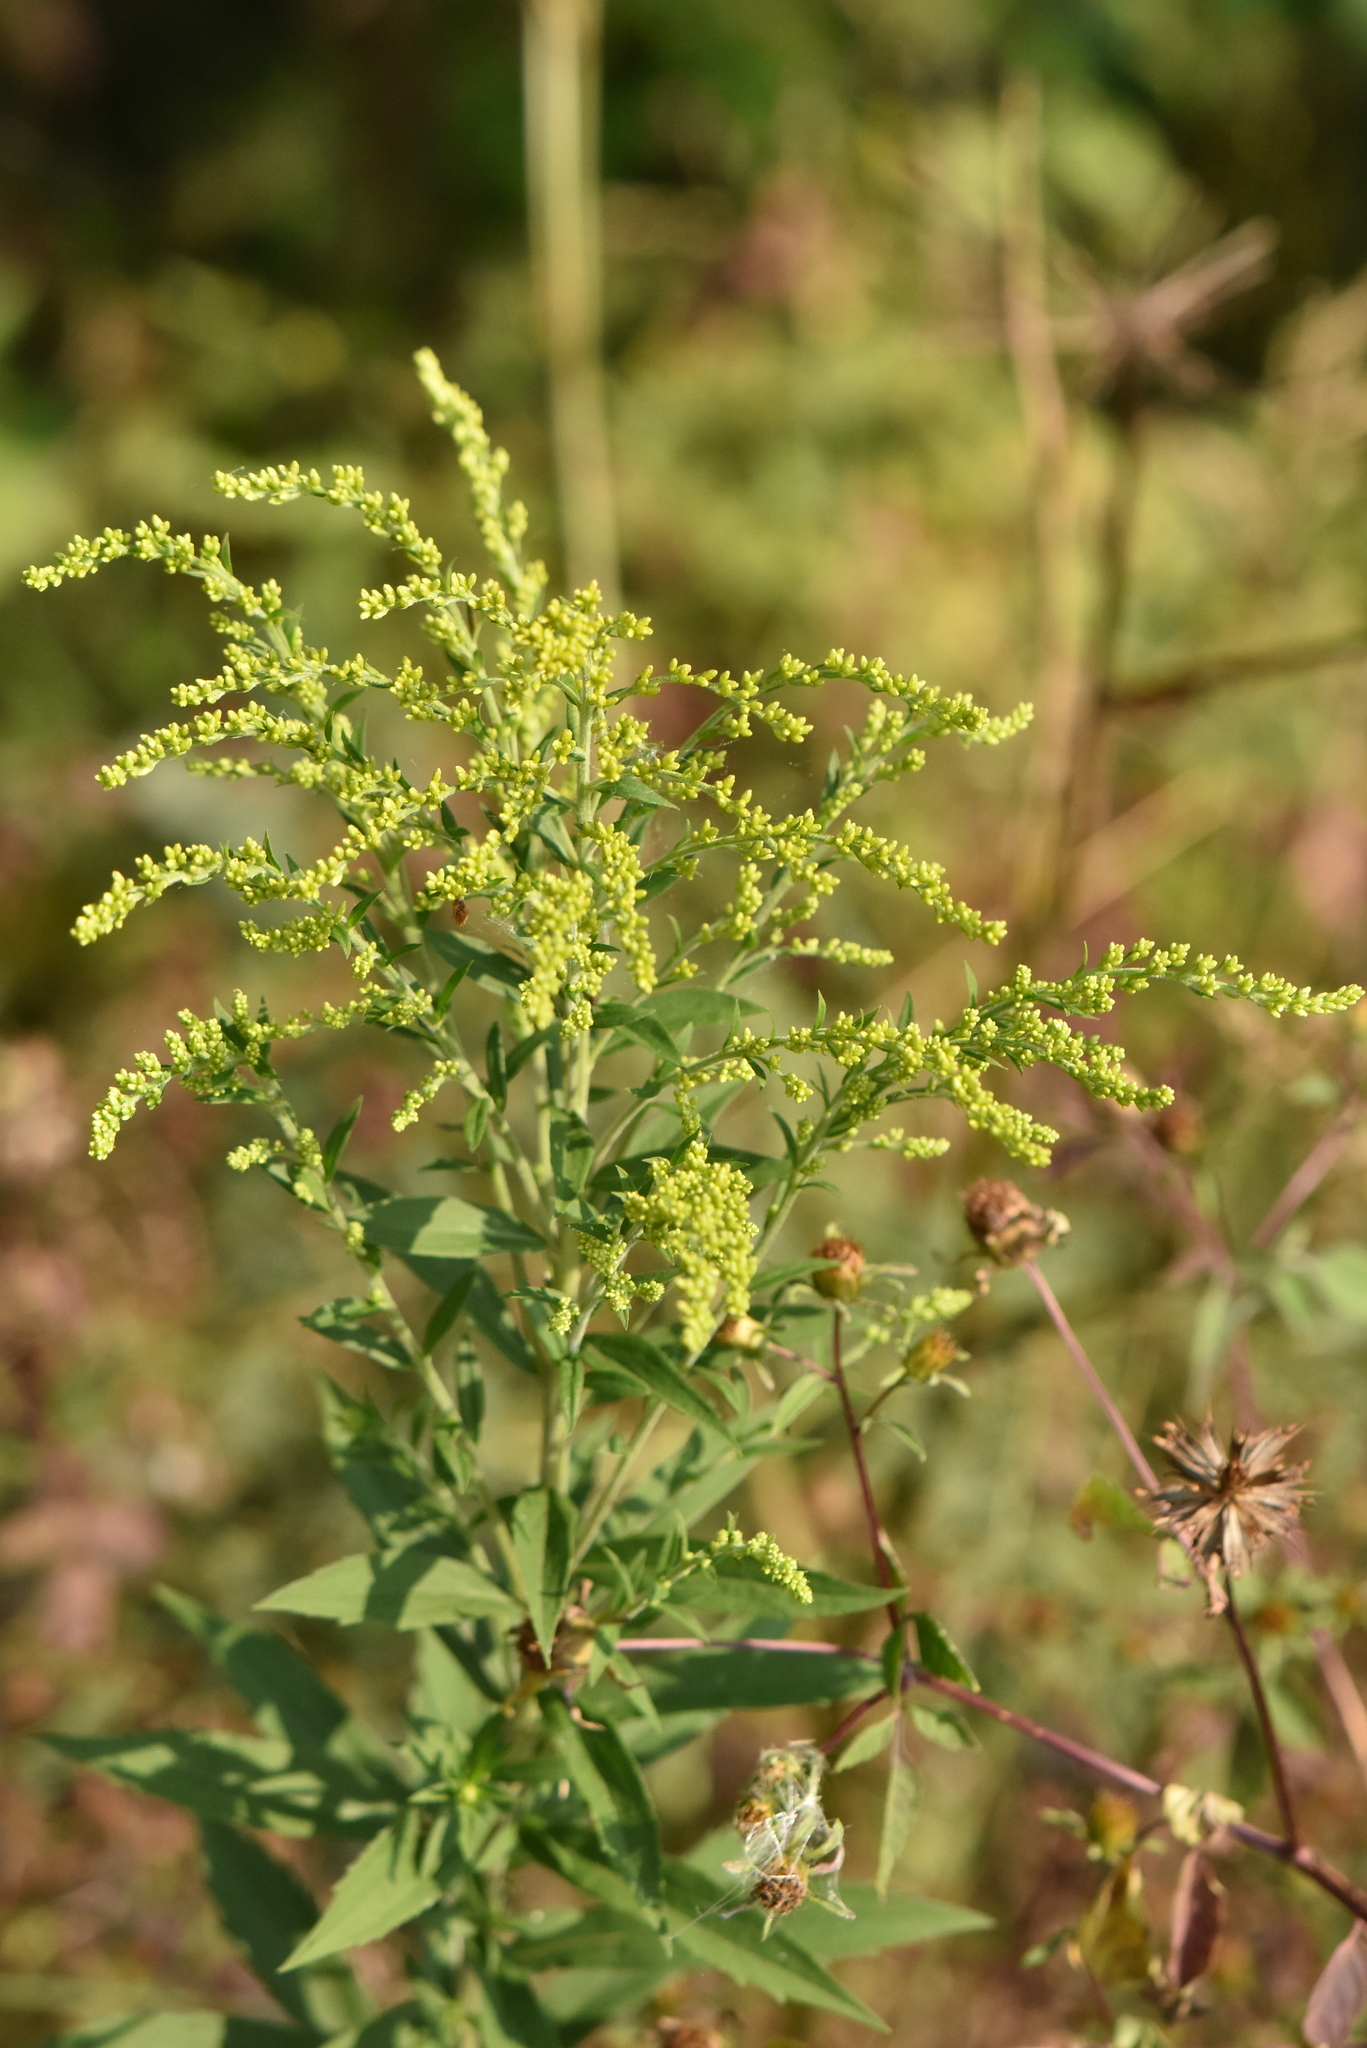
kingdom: Plantae
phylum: Tracheophyta
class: Magnoliopsida
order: Asterales
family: Asteraceae
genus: Solidago
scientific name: Solidago canadensis
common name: Canada goldenrod
